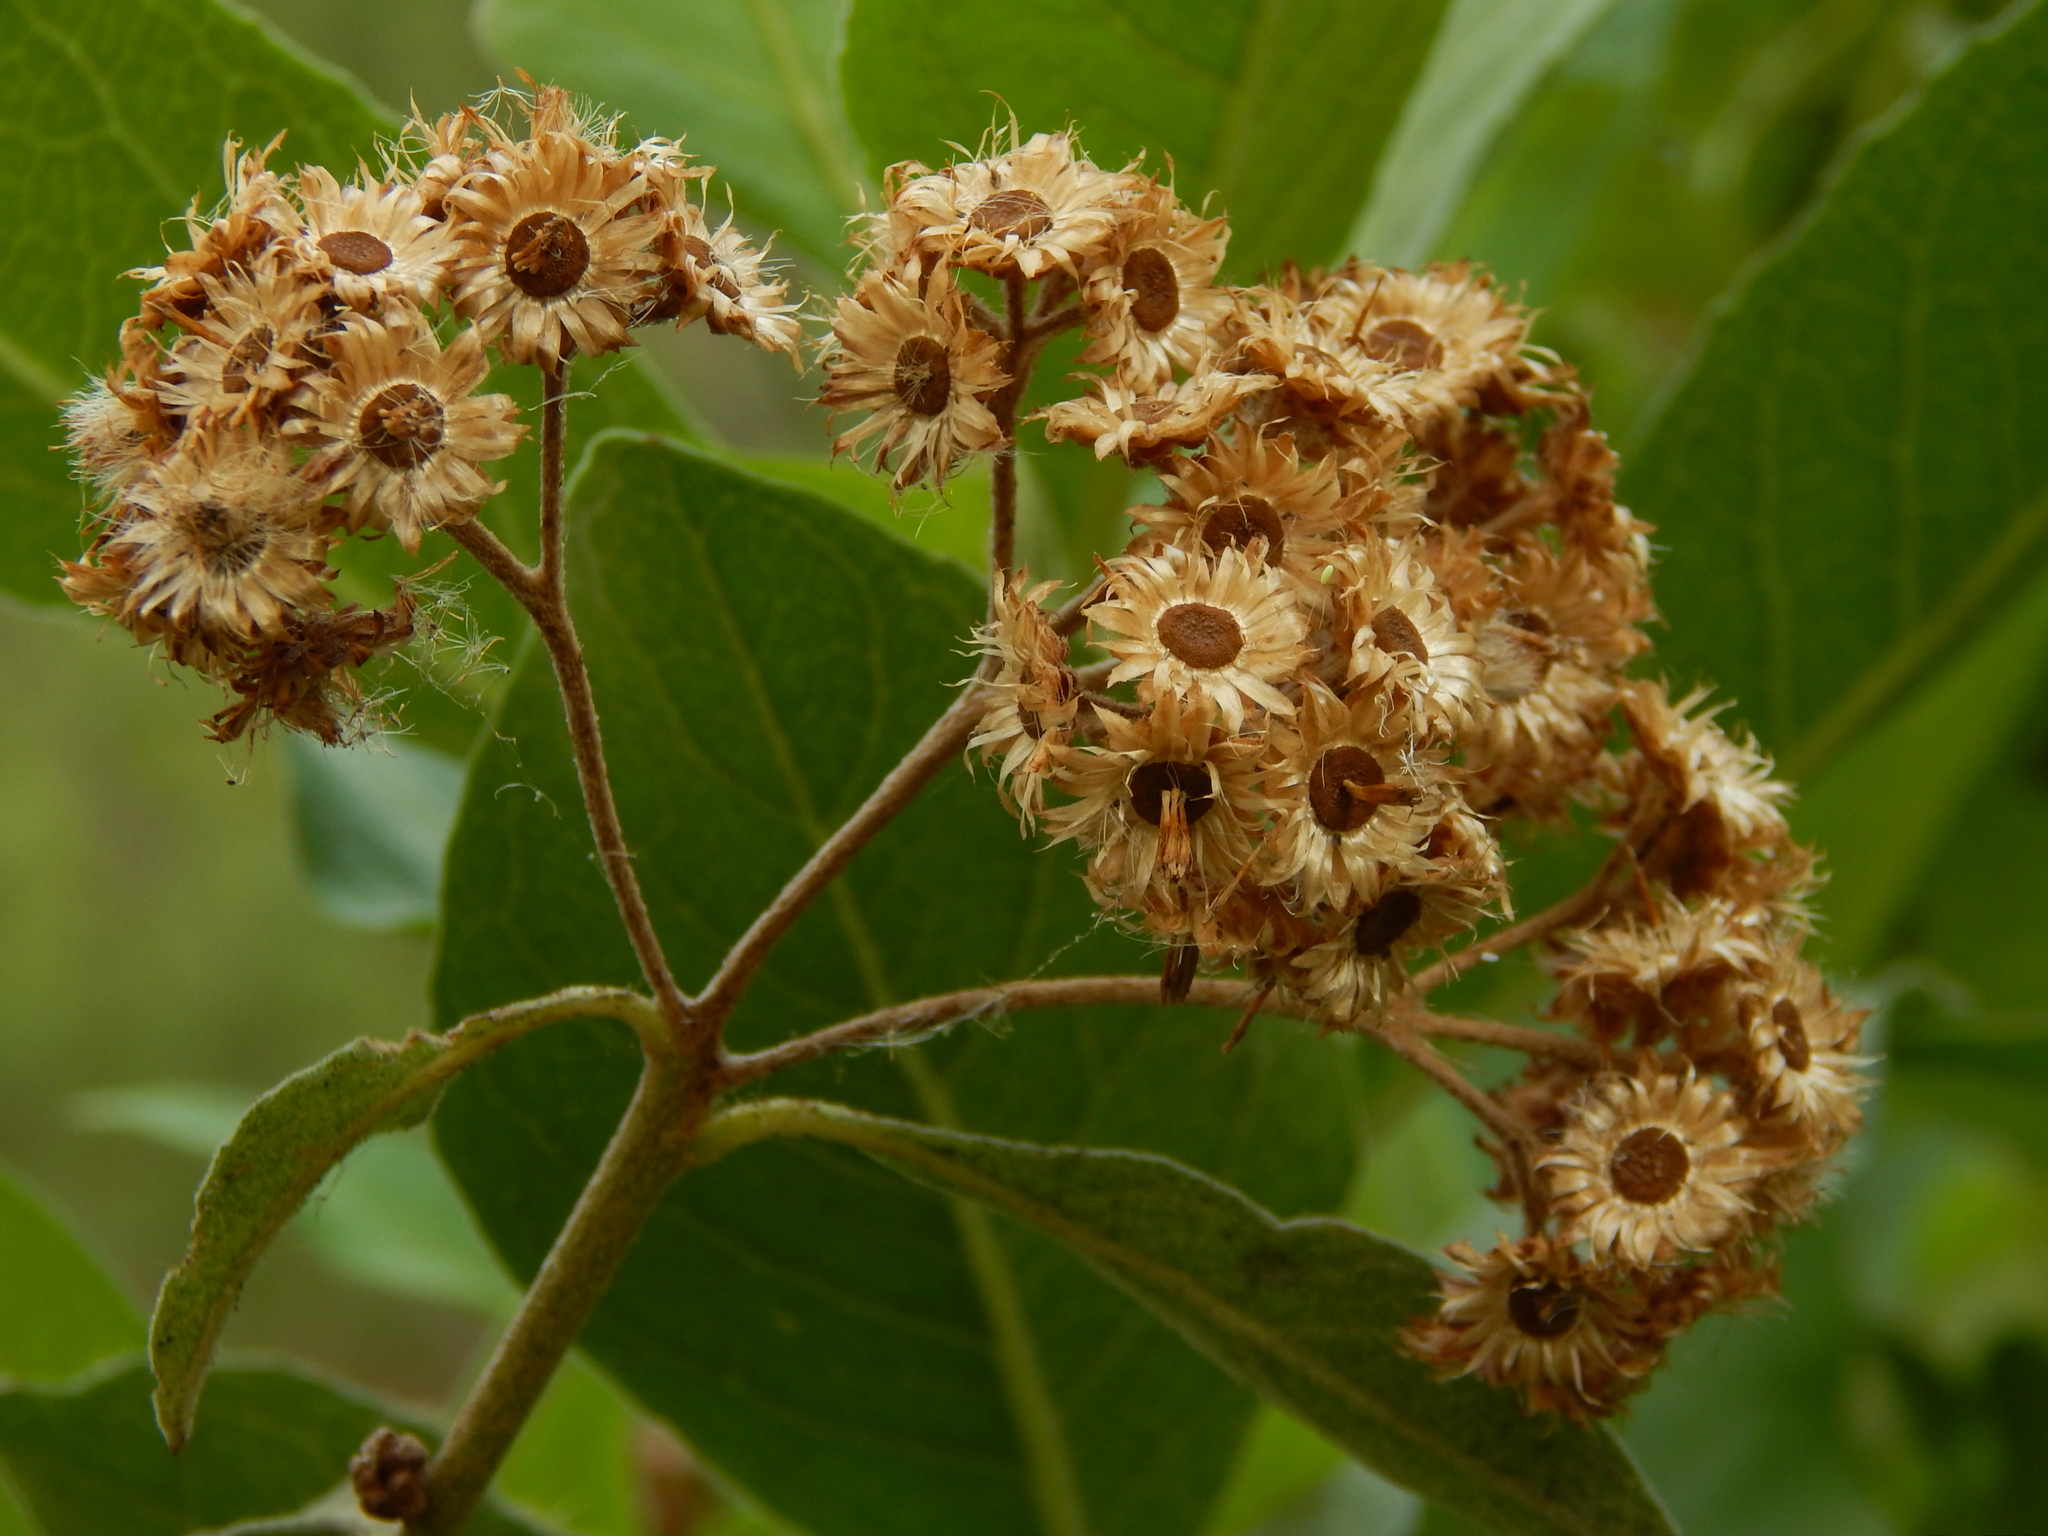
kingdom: Plantae
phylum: Tracheophyta
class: Magnoliopsida
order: Asterales
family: Asteraceae
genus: Pluchea
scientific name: Pluchea carolinensis
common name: Marsh fleabane
